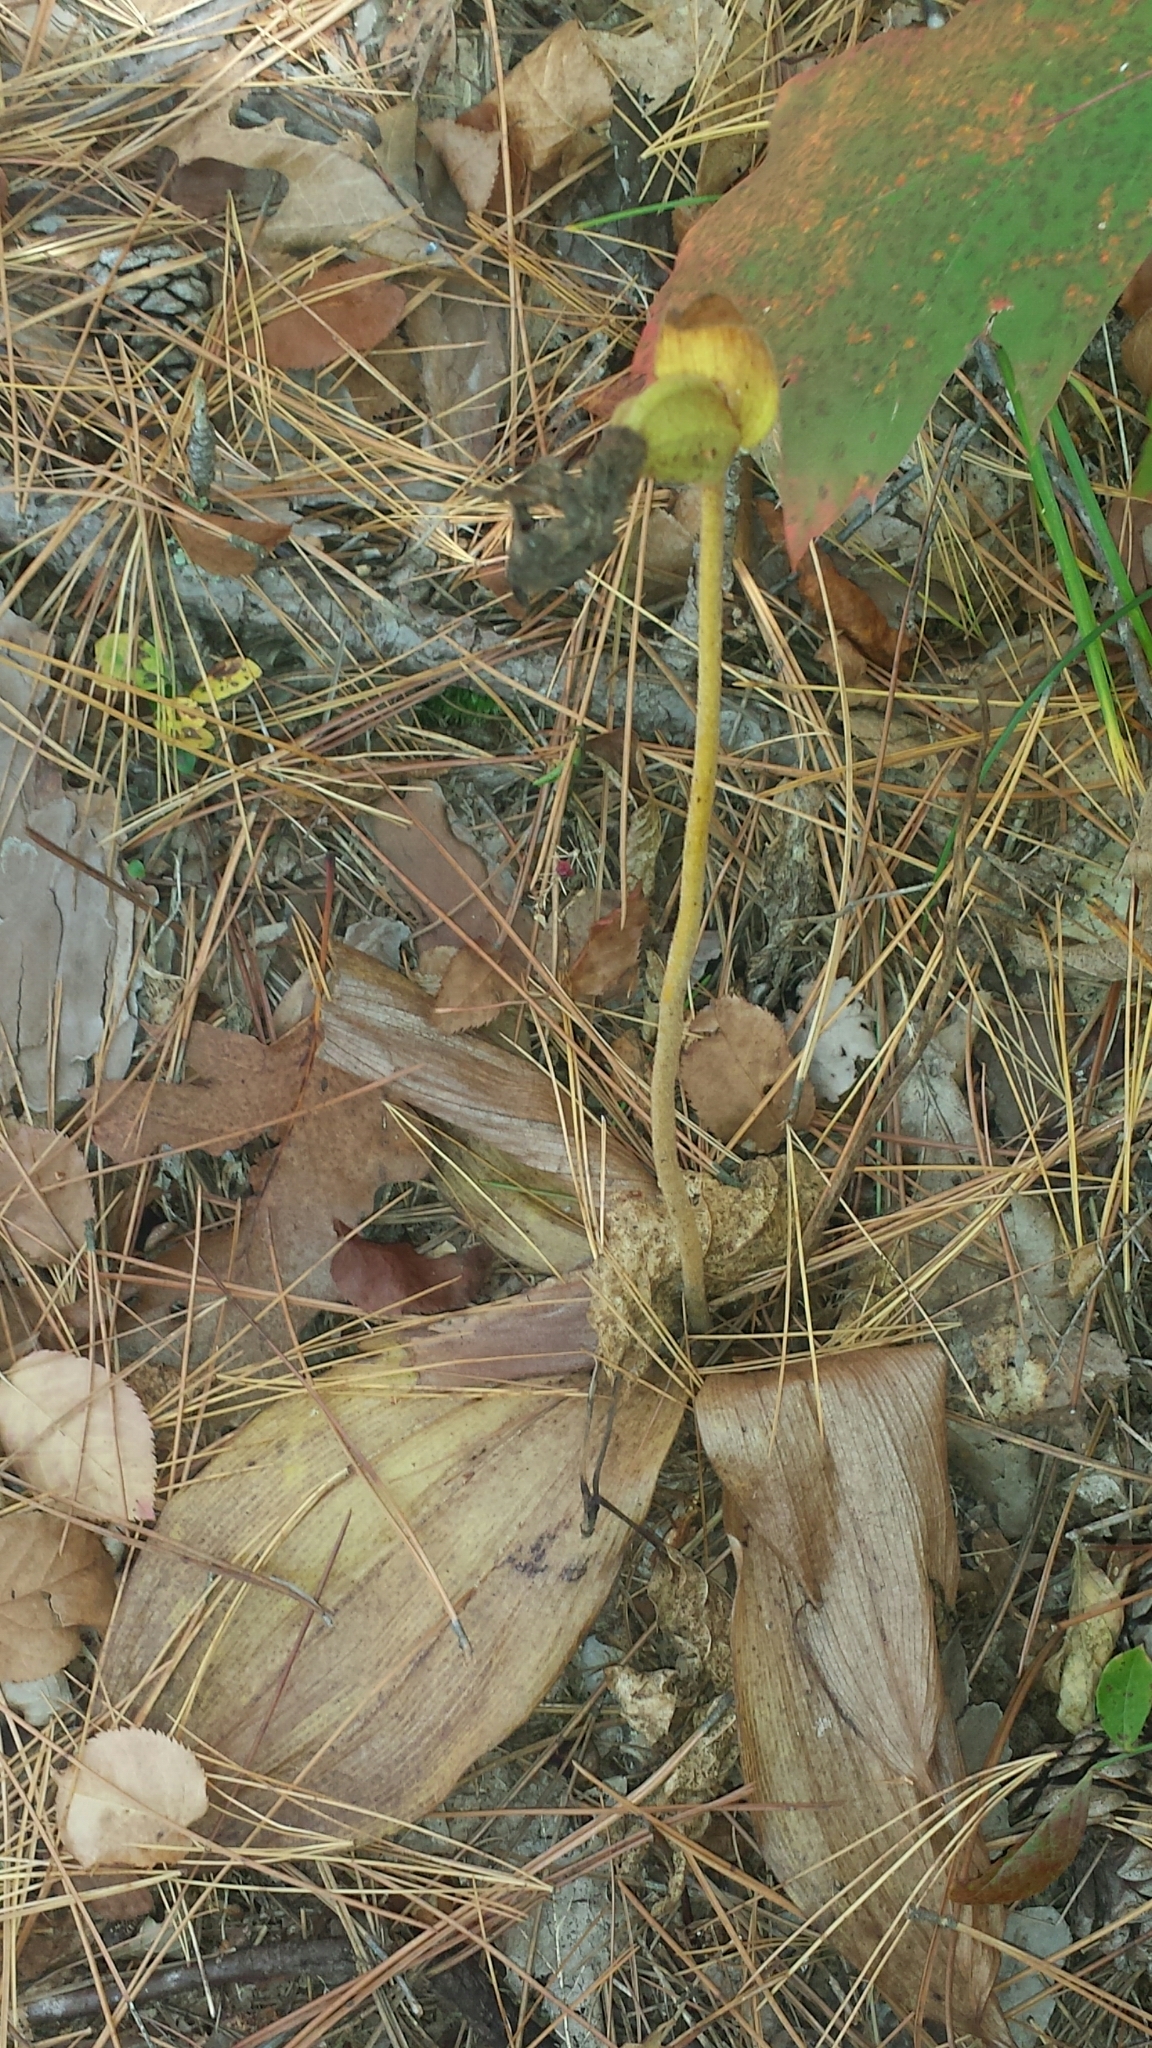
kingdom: Plantae
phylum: Tracheophyta
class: Liliopsida
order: Asparagales
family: Orchidaceae
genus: Cypripedium
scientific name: Cypripedium acaule
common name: Pink lady's-slipper
